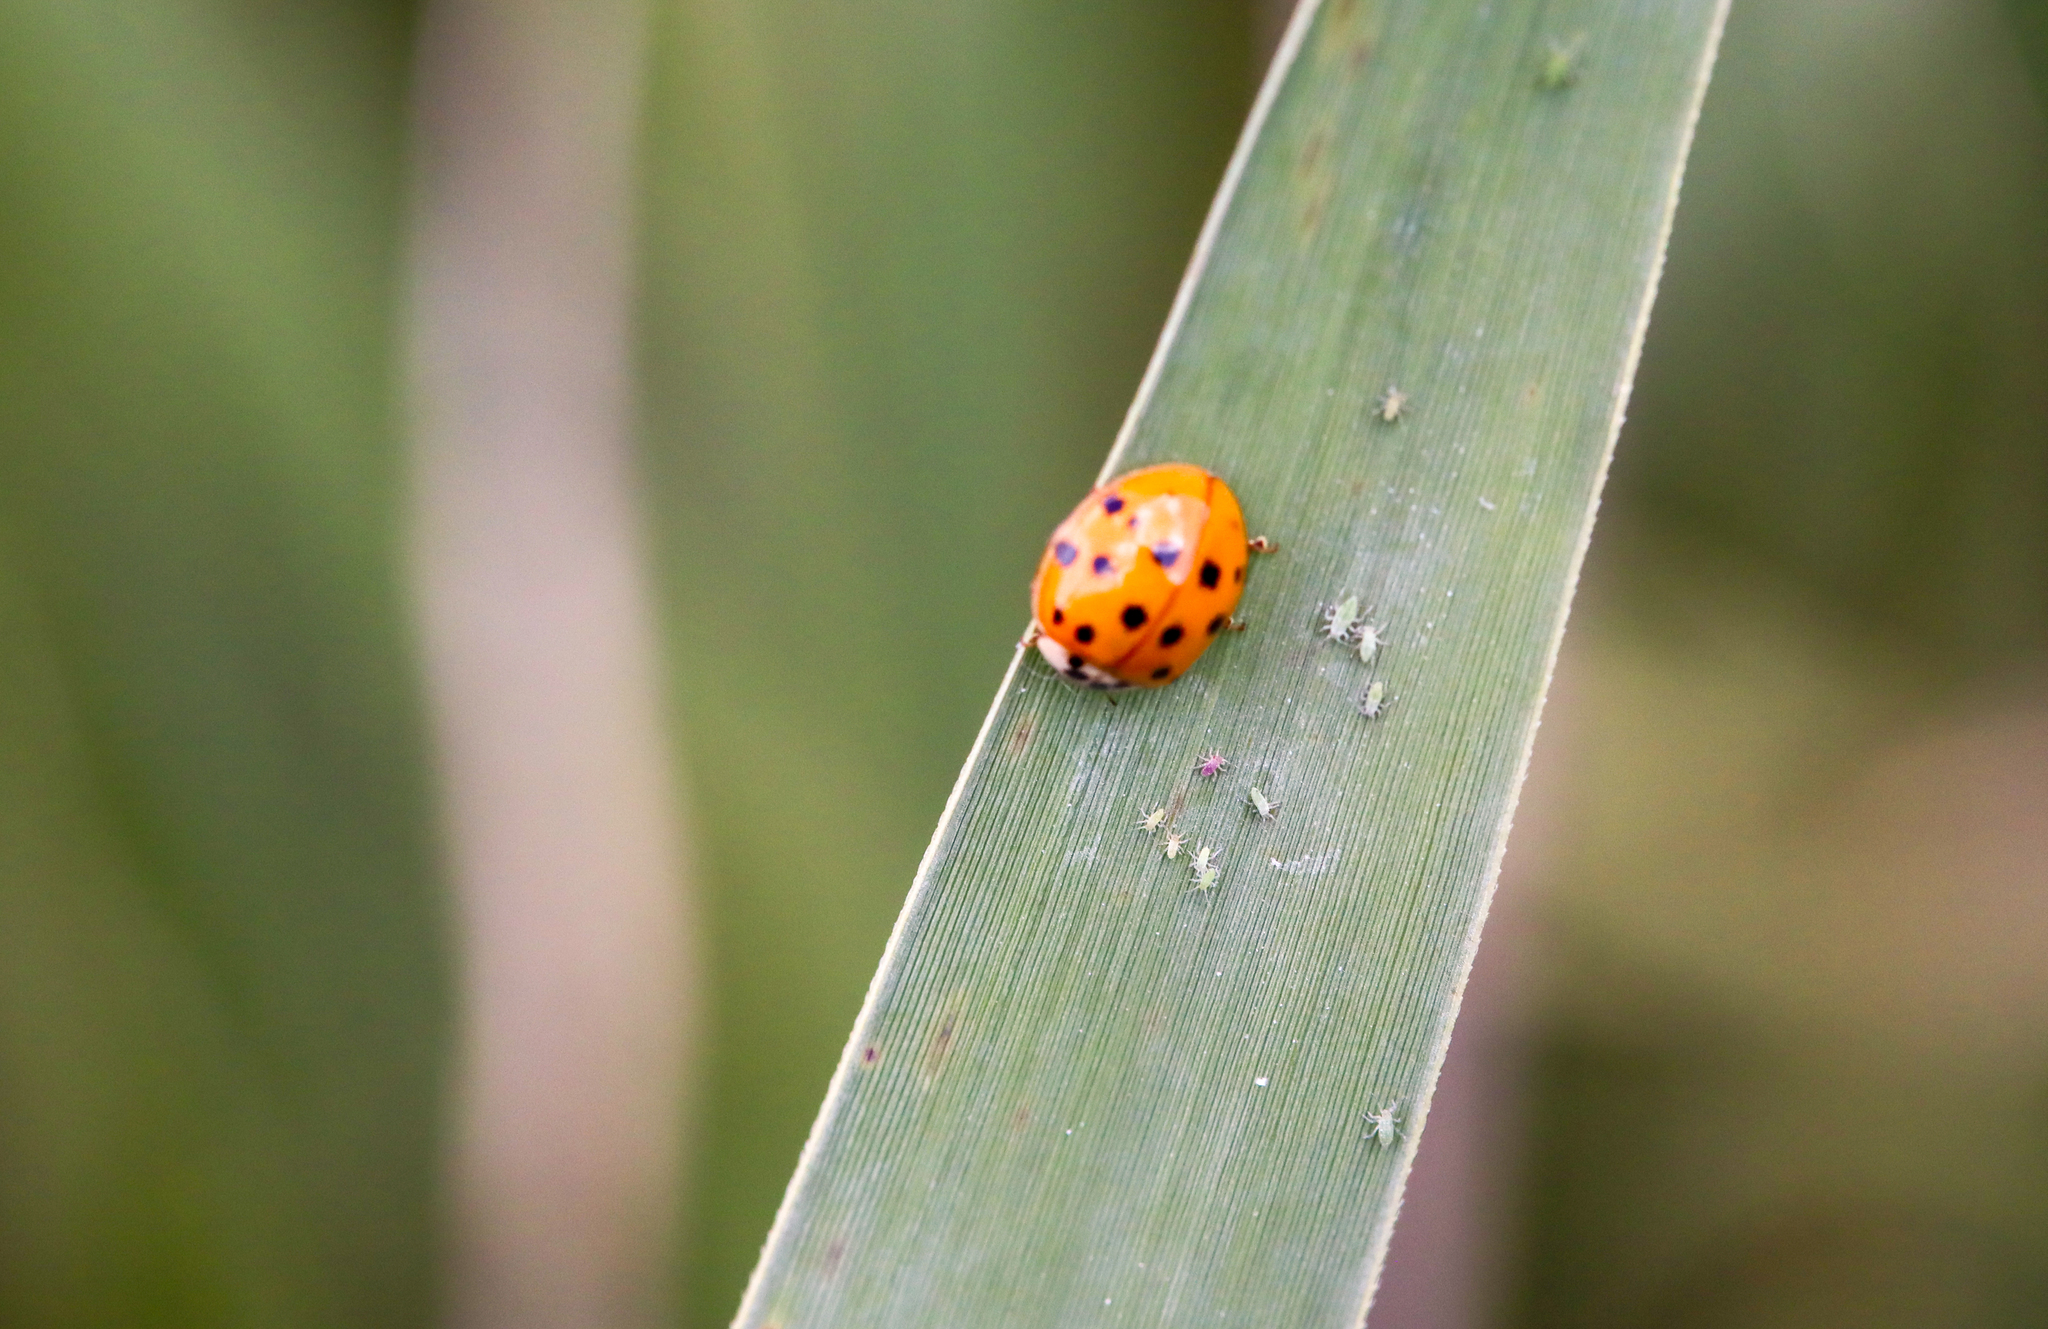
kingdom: Animalia
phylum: Arthropoda
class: Insecta
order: Coleoptera
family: Coccinellidae
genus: Harmonia
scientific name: Harmonia axyridis
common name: Harlequin ladybird
